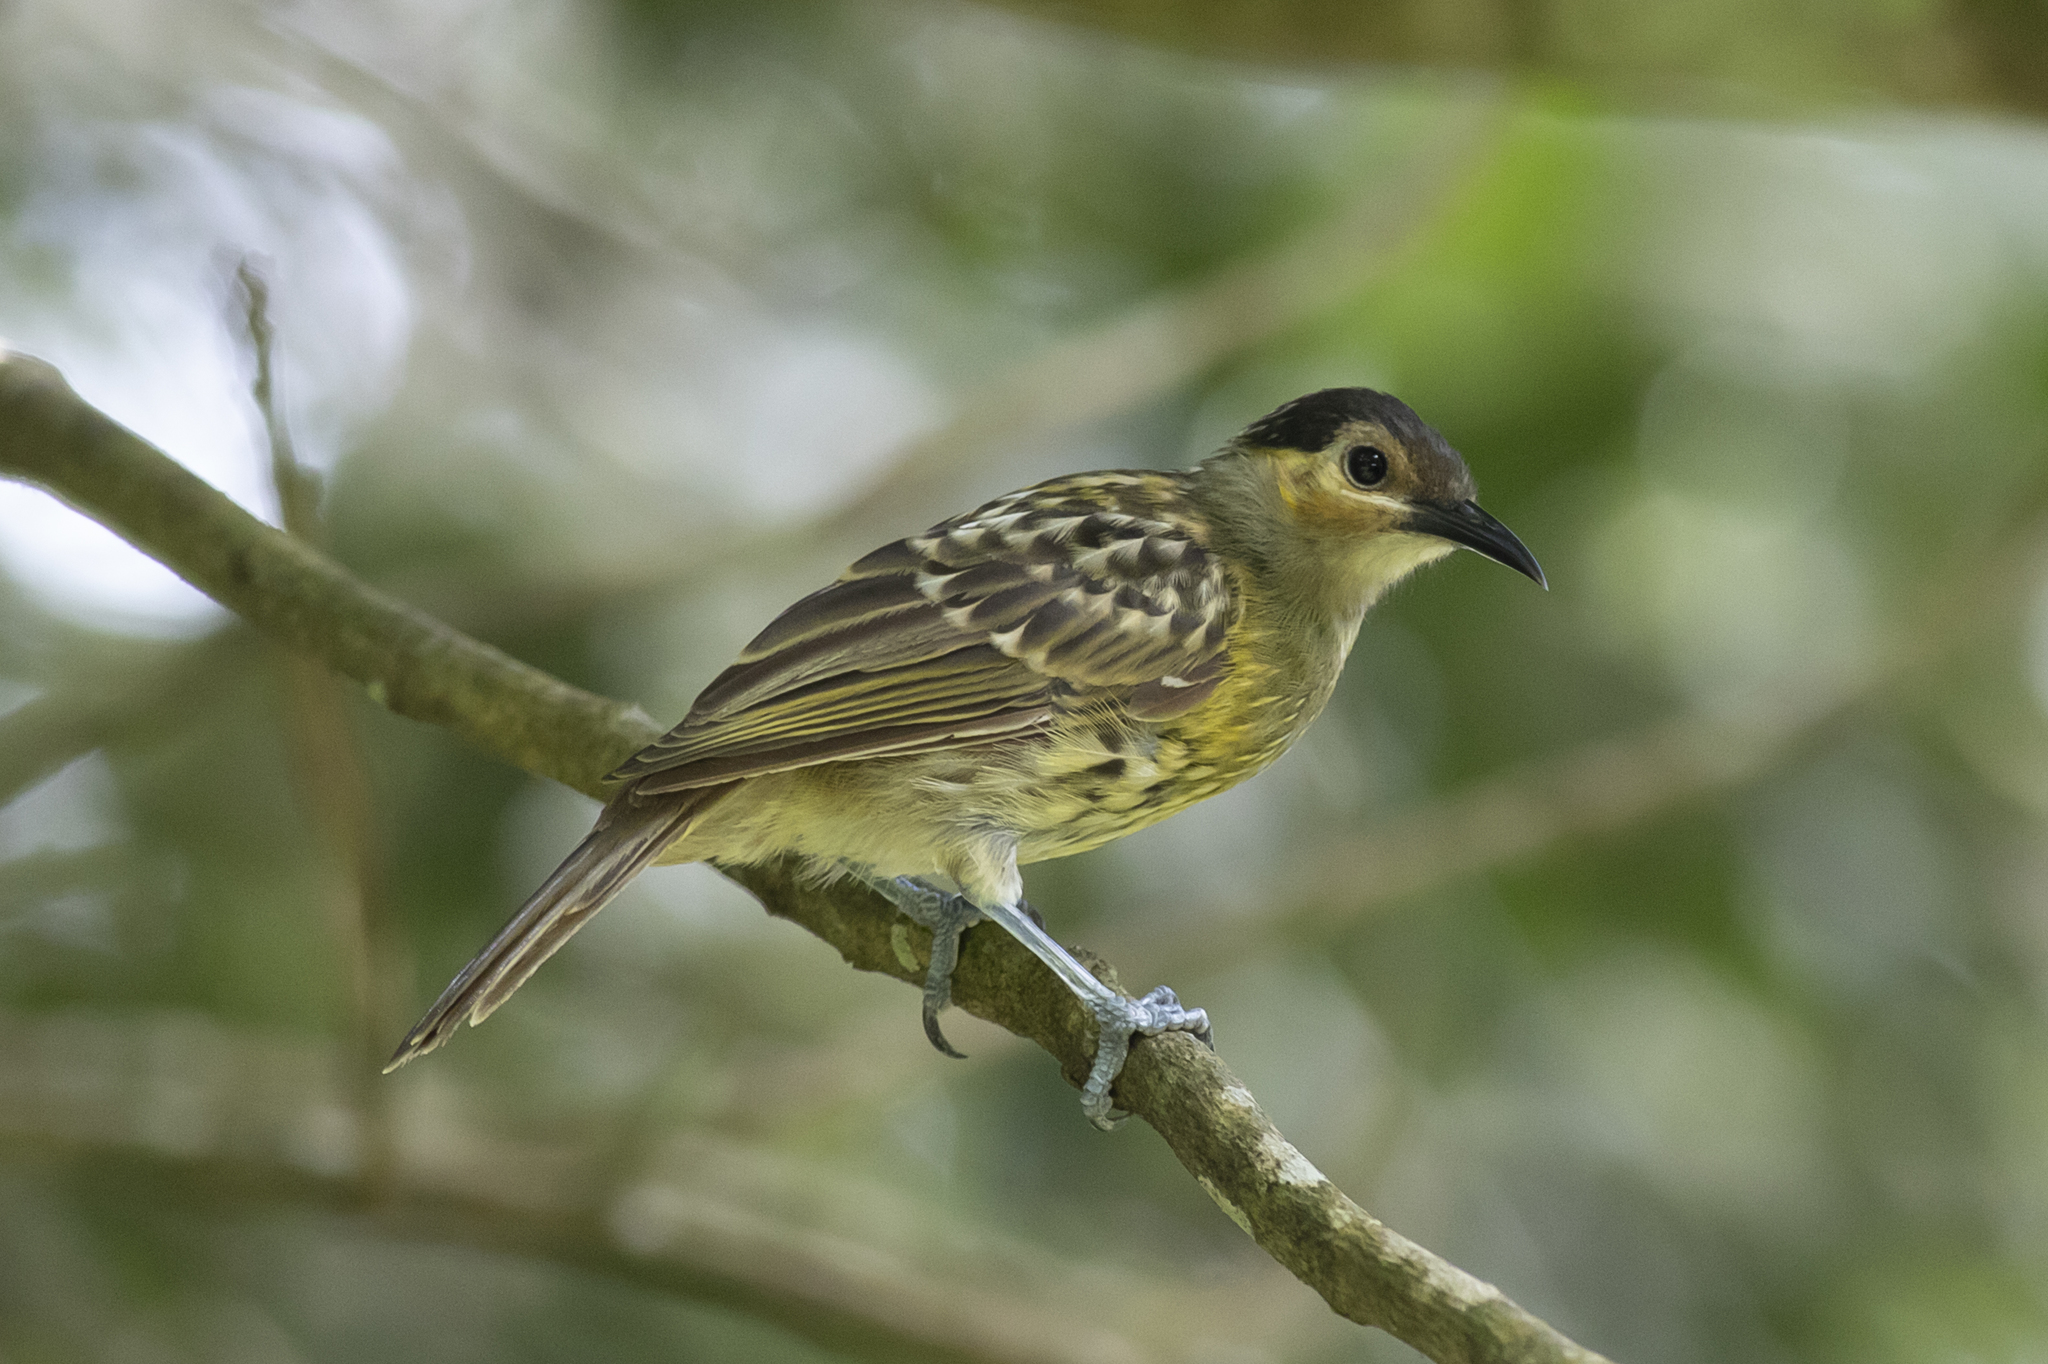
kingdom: Animalia
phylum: Chordata
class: Aves
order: Passeriformes
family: Meliphagidae
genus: Xanthotis
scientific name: Xanthotis macleayanus
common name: Macleay's honeyeater
